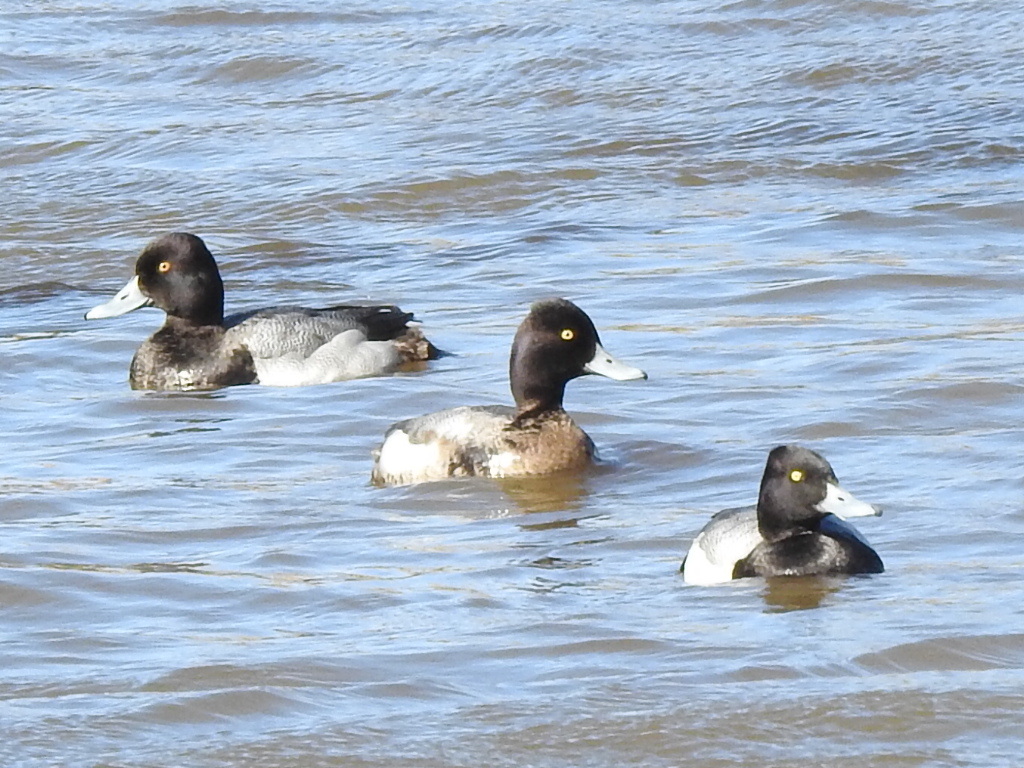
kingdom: Animalia
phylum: Chordata
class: Aves
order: Anseriformes
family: Anatidae
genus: Aythya
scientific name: Aythya affinis
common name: Lesser scaup
